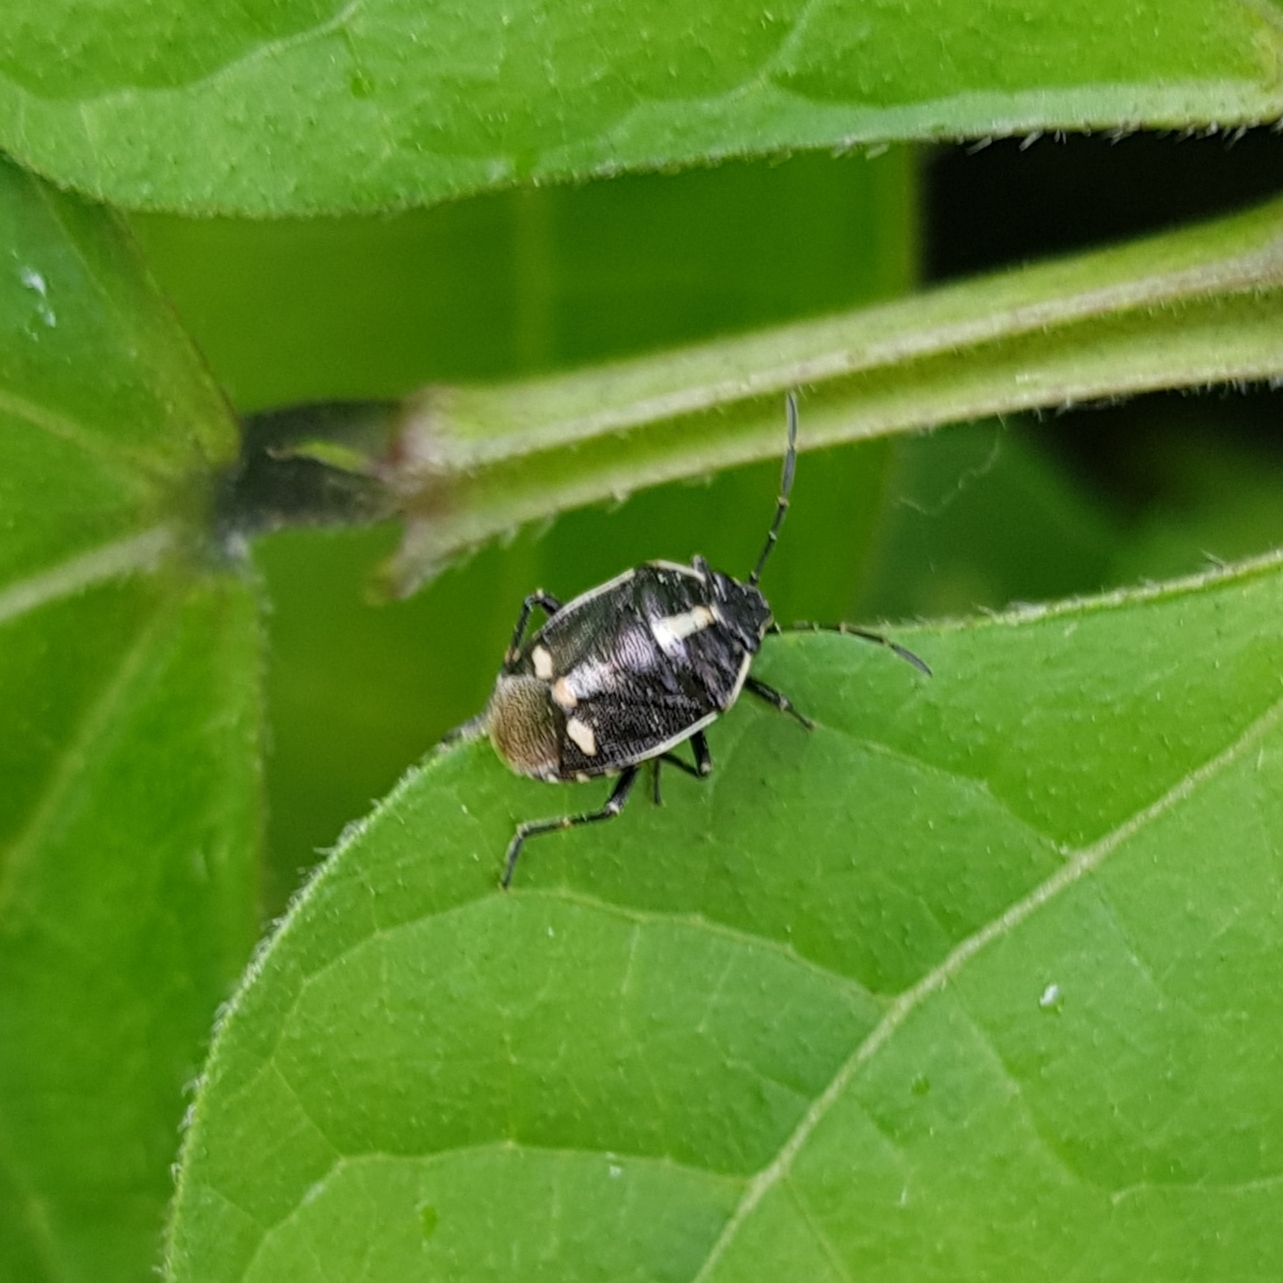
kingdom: Animalia
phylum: Arthropoda
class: Insecta
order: Hemiptera
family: Pentatomidae
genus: Eurydema
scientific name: Eurydema oleracea
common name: Cabbage bug
